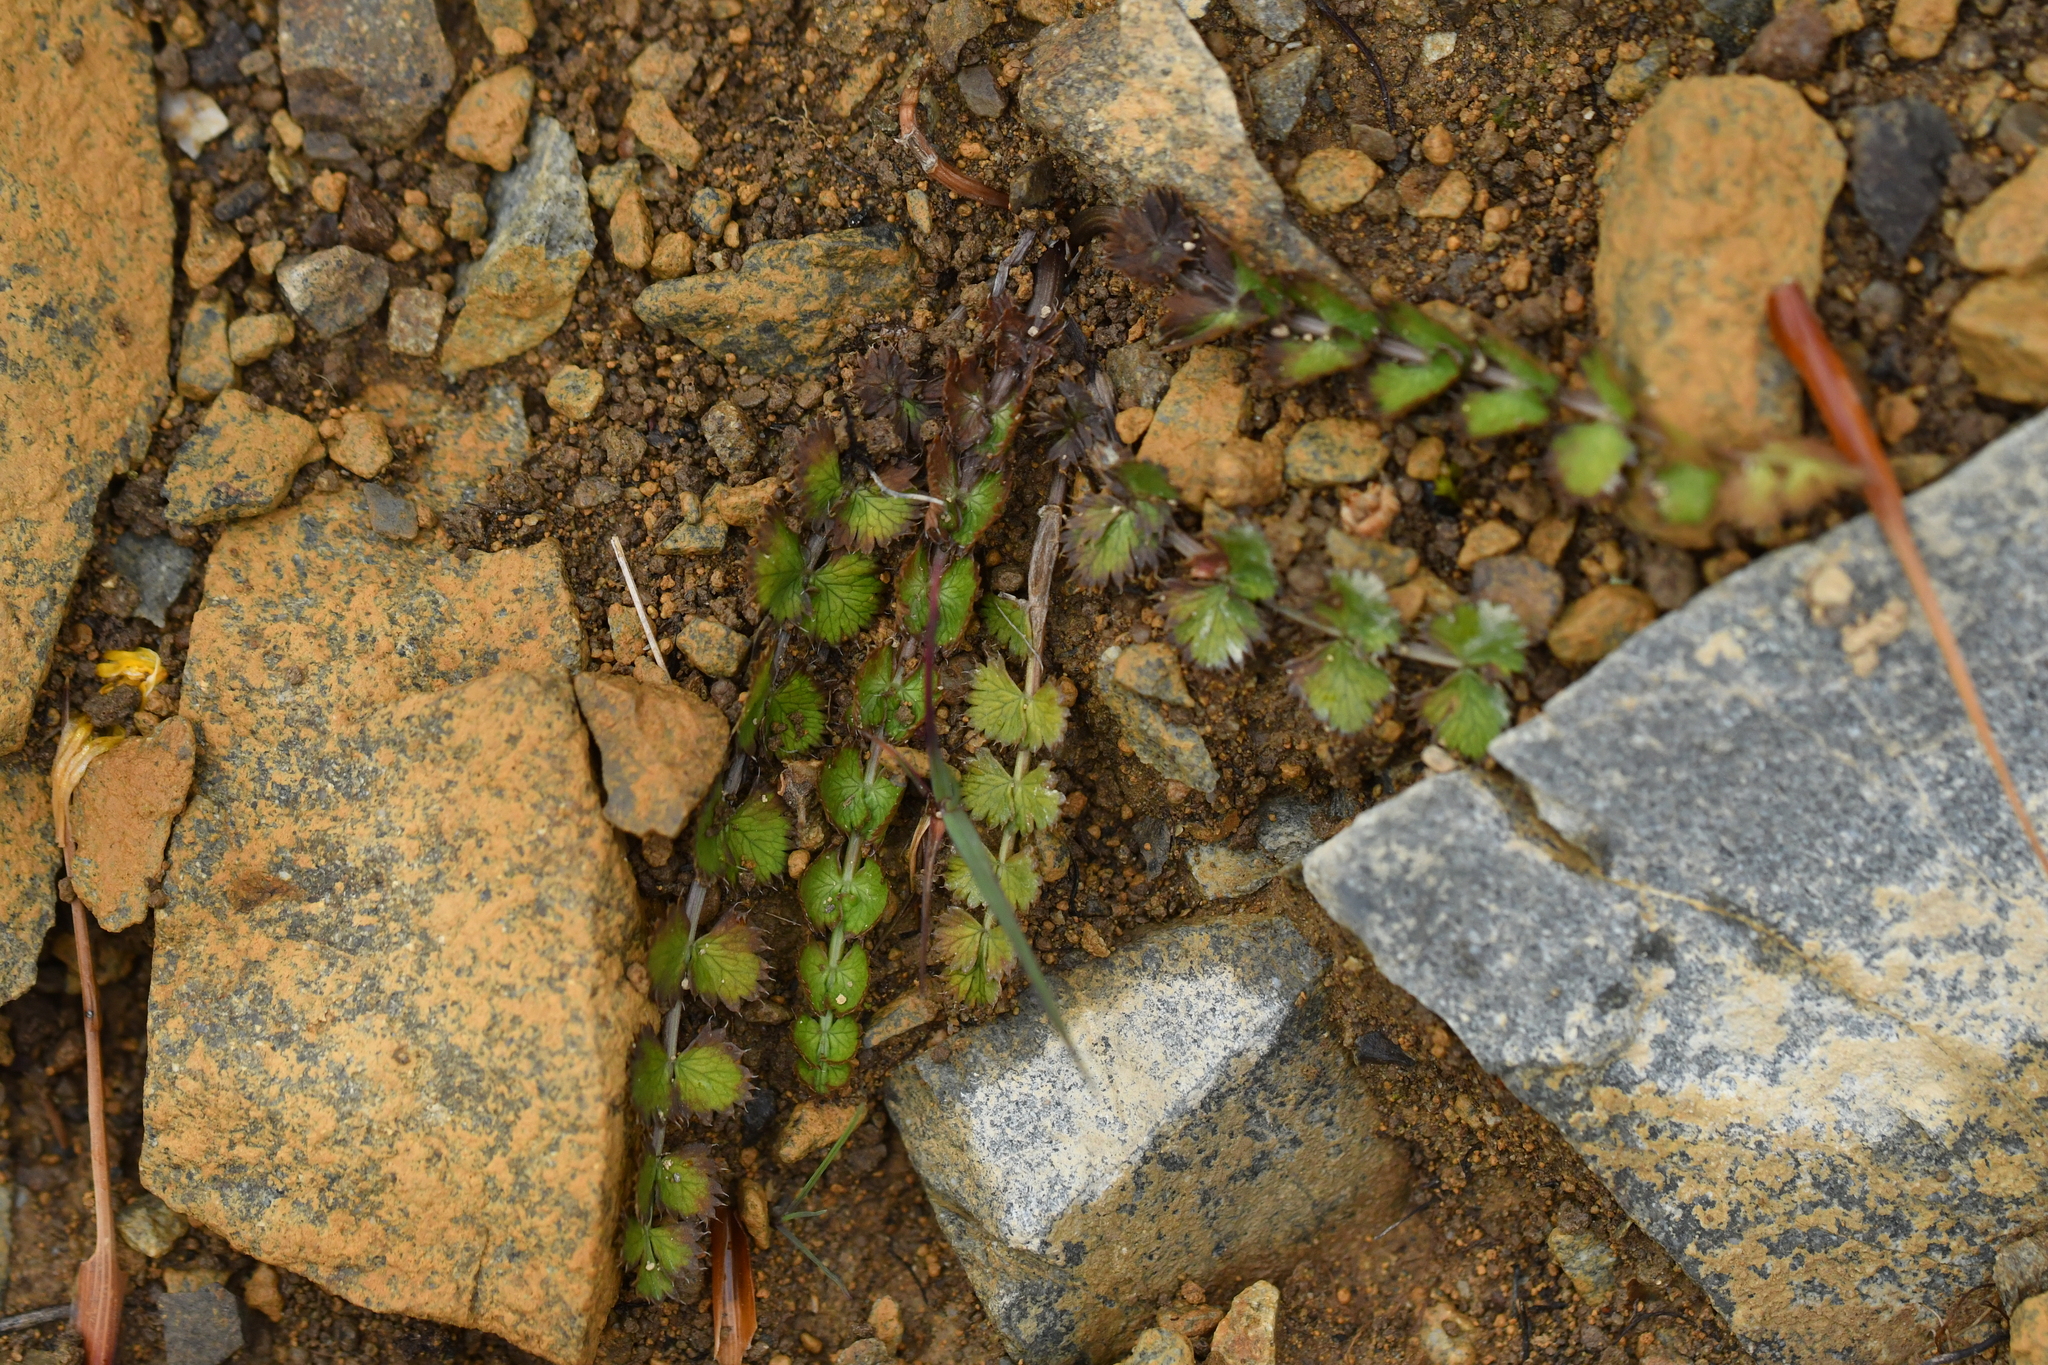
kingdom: Plantae
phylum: Tracheophyta
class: Magnoliopsida
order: Apiales
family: Apiaceae
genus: Anisotome
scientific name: Anisotome aromatica
